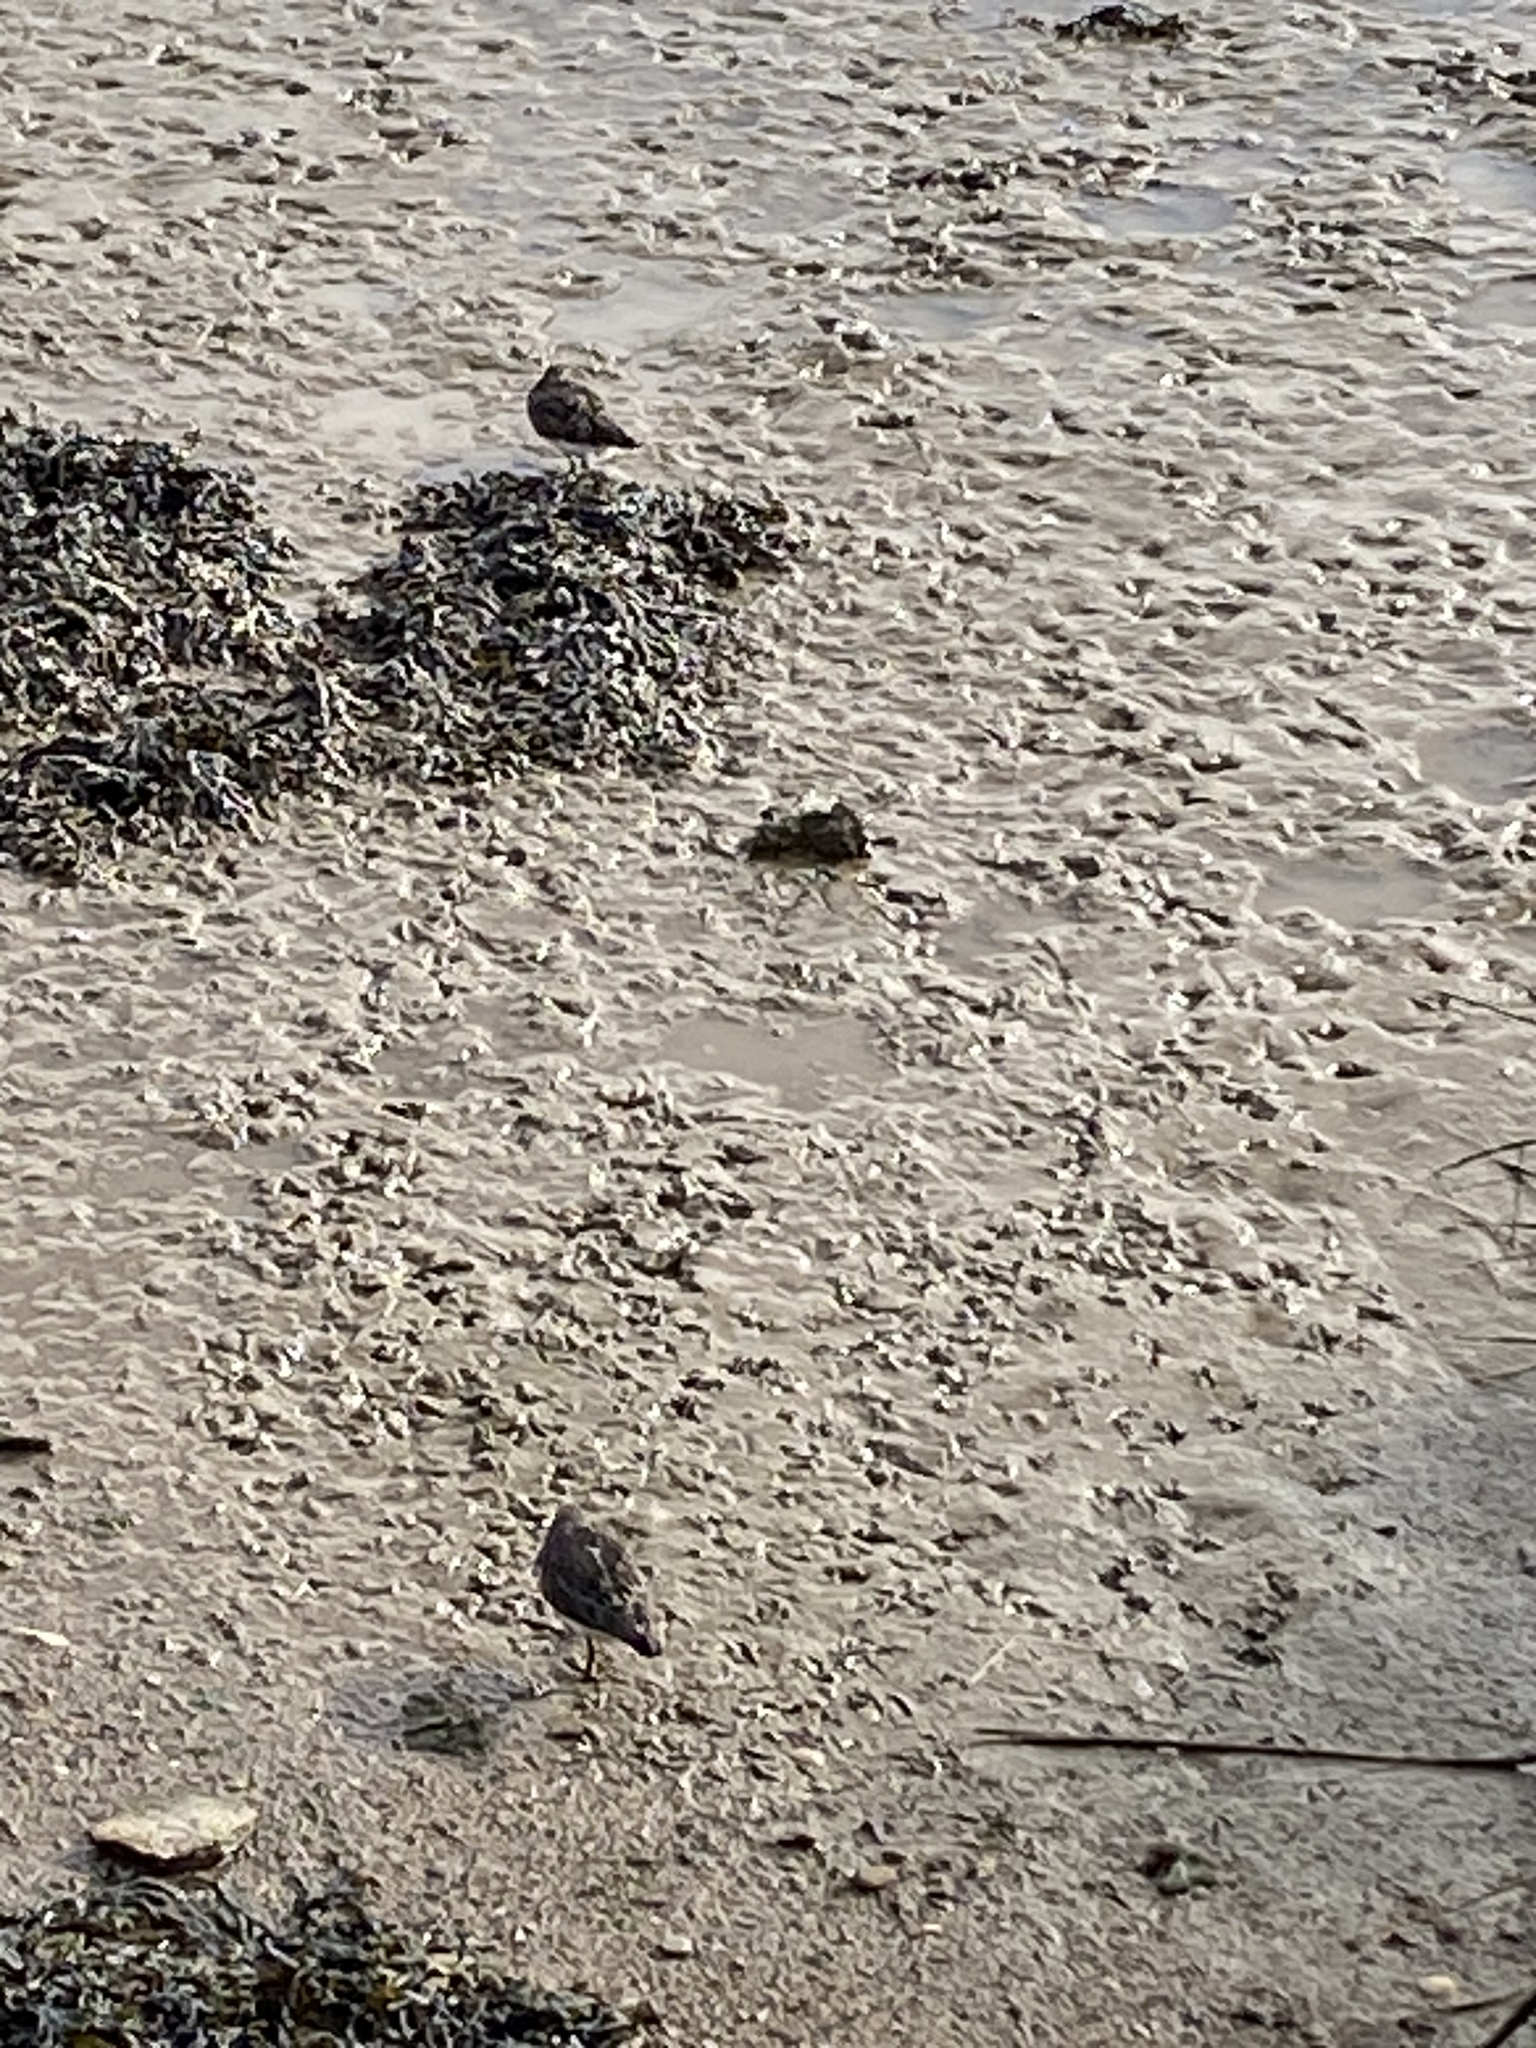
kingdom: Animalia
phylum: Chordata
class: Aves
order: Charadriiformes
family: Scolopacidae
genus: Arenaria
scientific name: Arenaria interpres
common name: Ruddy turnstone
